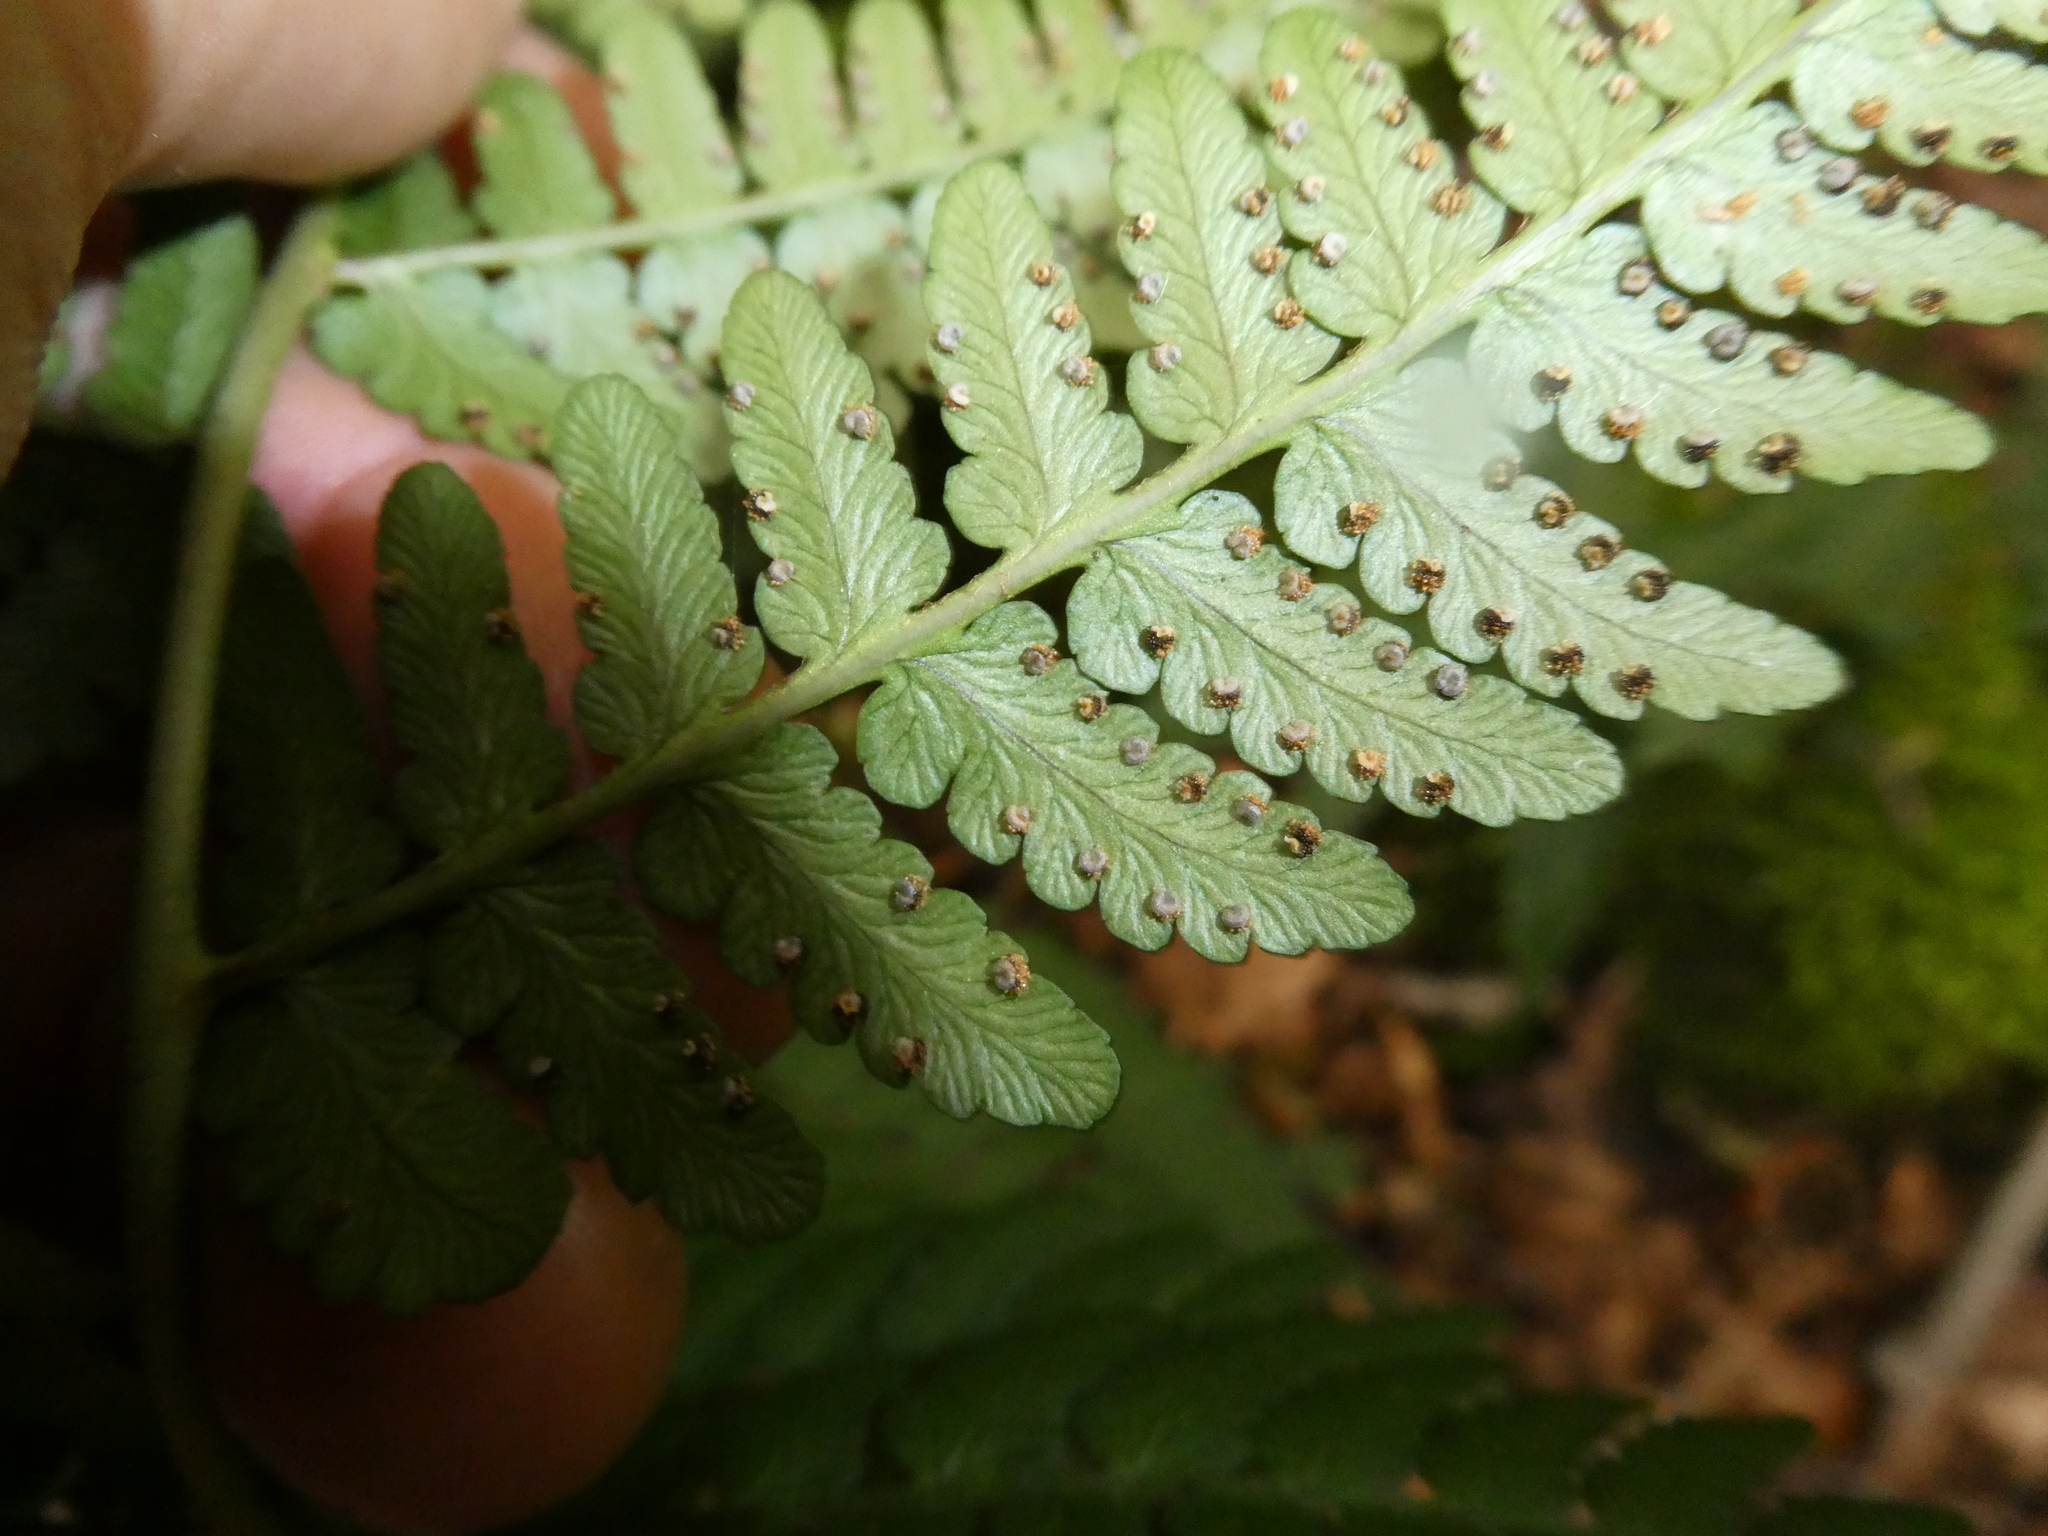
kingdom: Plantae
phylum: Tracheophyta
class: Polypodiopsida
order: Polypodiales
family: Dryopteridaceae
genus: Dryopteris
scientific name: Dryopteris marginalis
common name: Marginal wood fern
